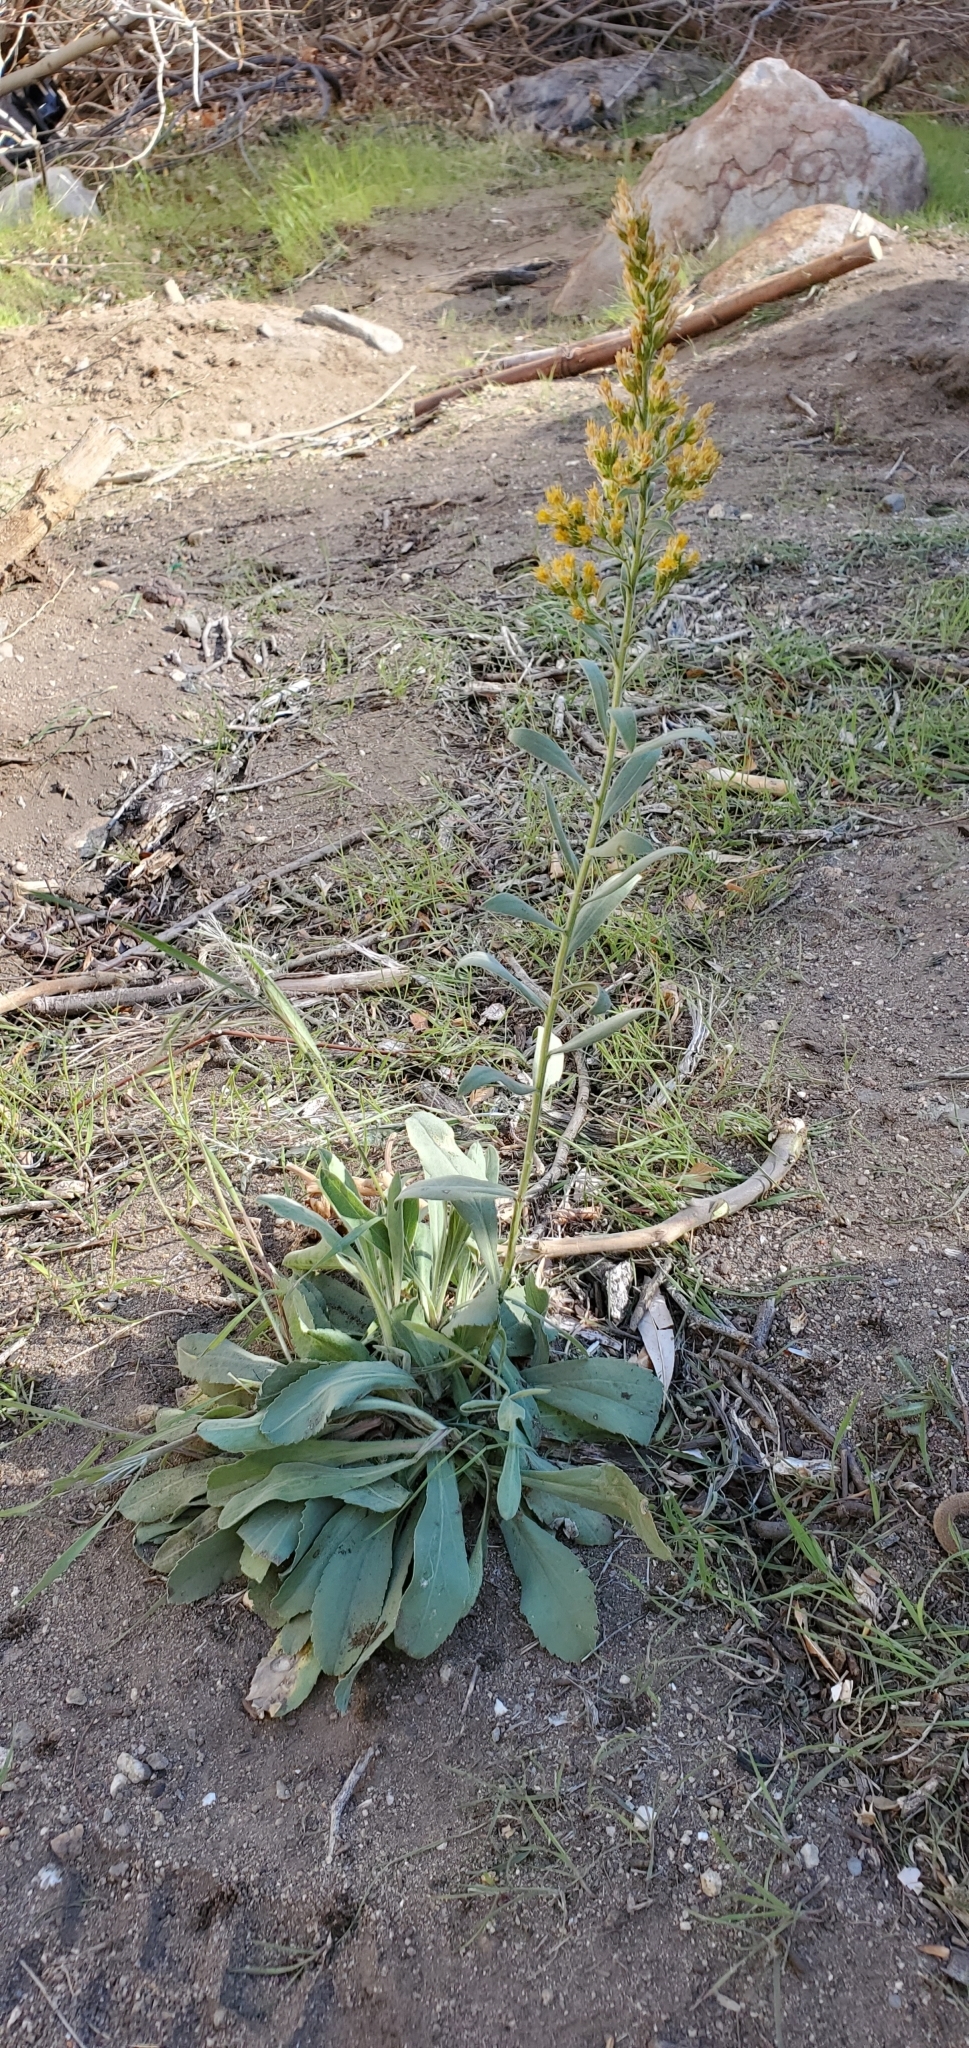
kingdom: Plantae
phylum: Tracheophyta
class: Magnoliopsida
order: Asterales
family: Asteraceae
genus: Solidago
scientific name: Solidago californica
